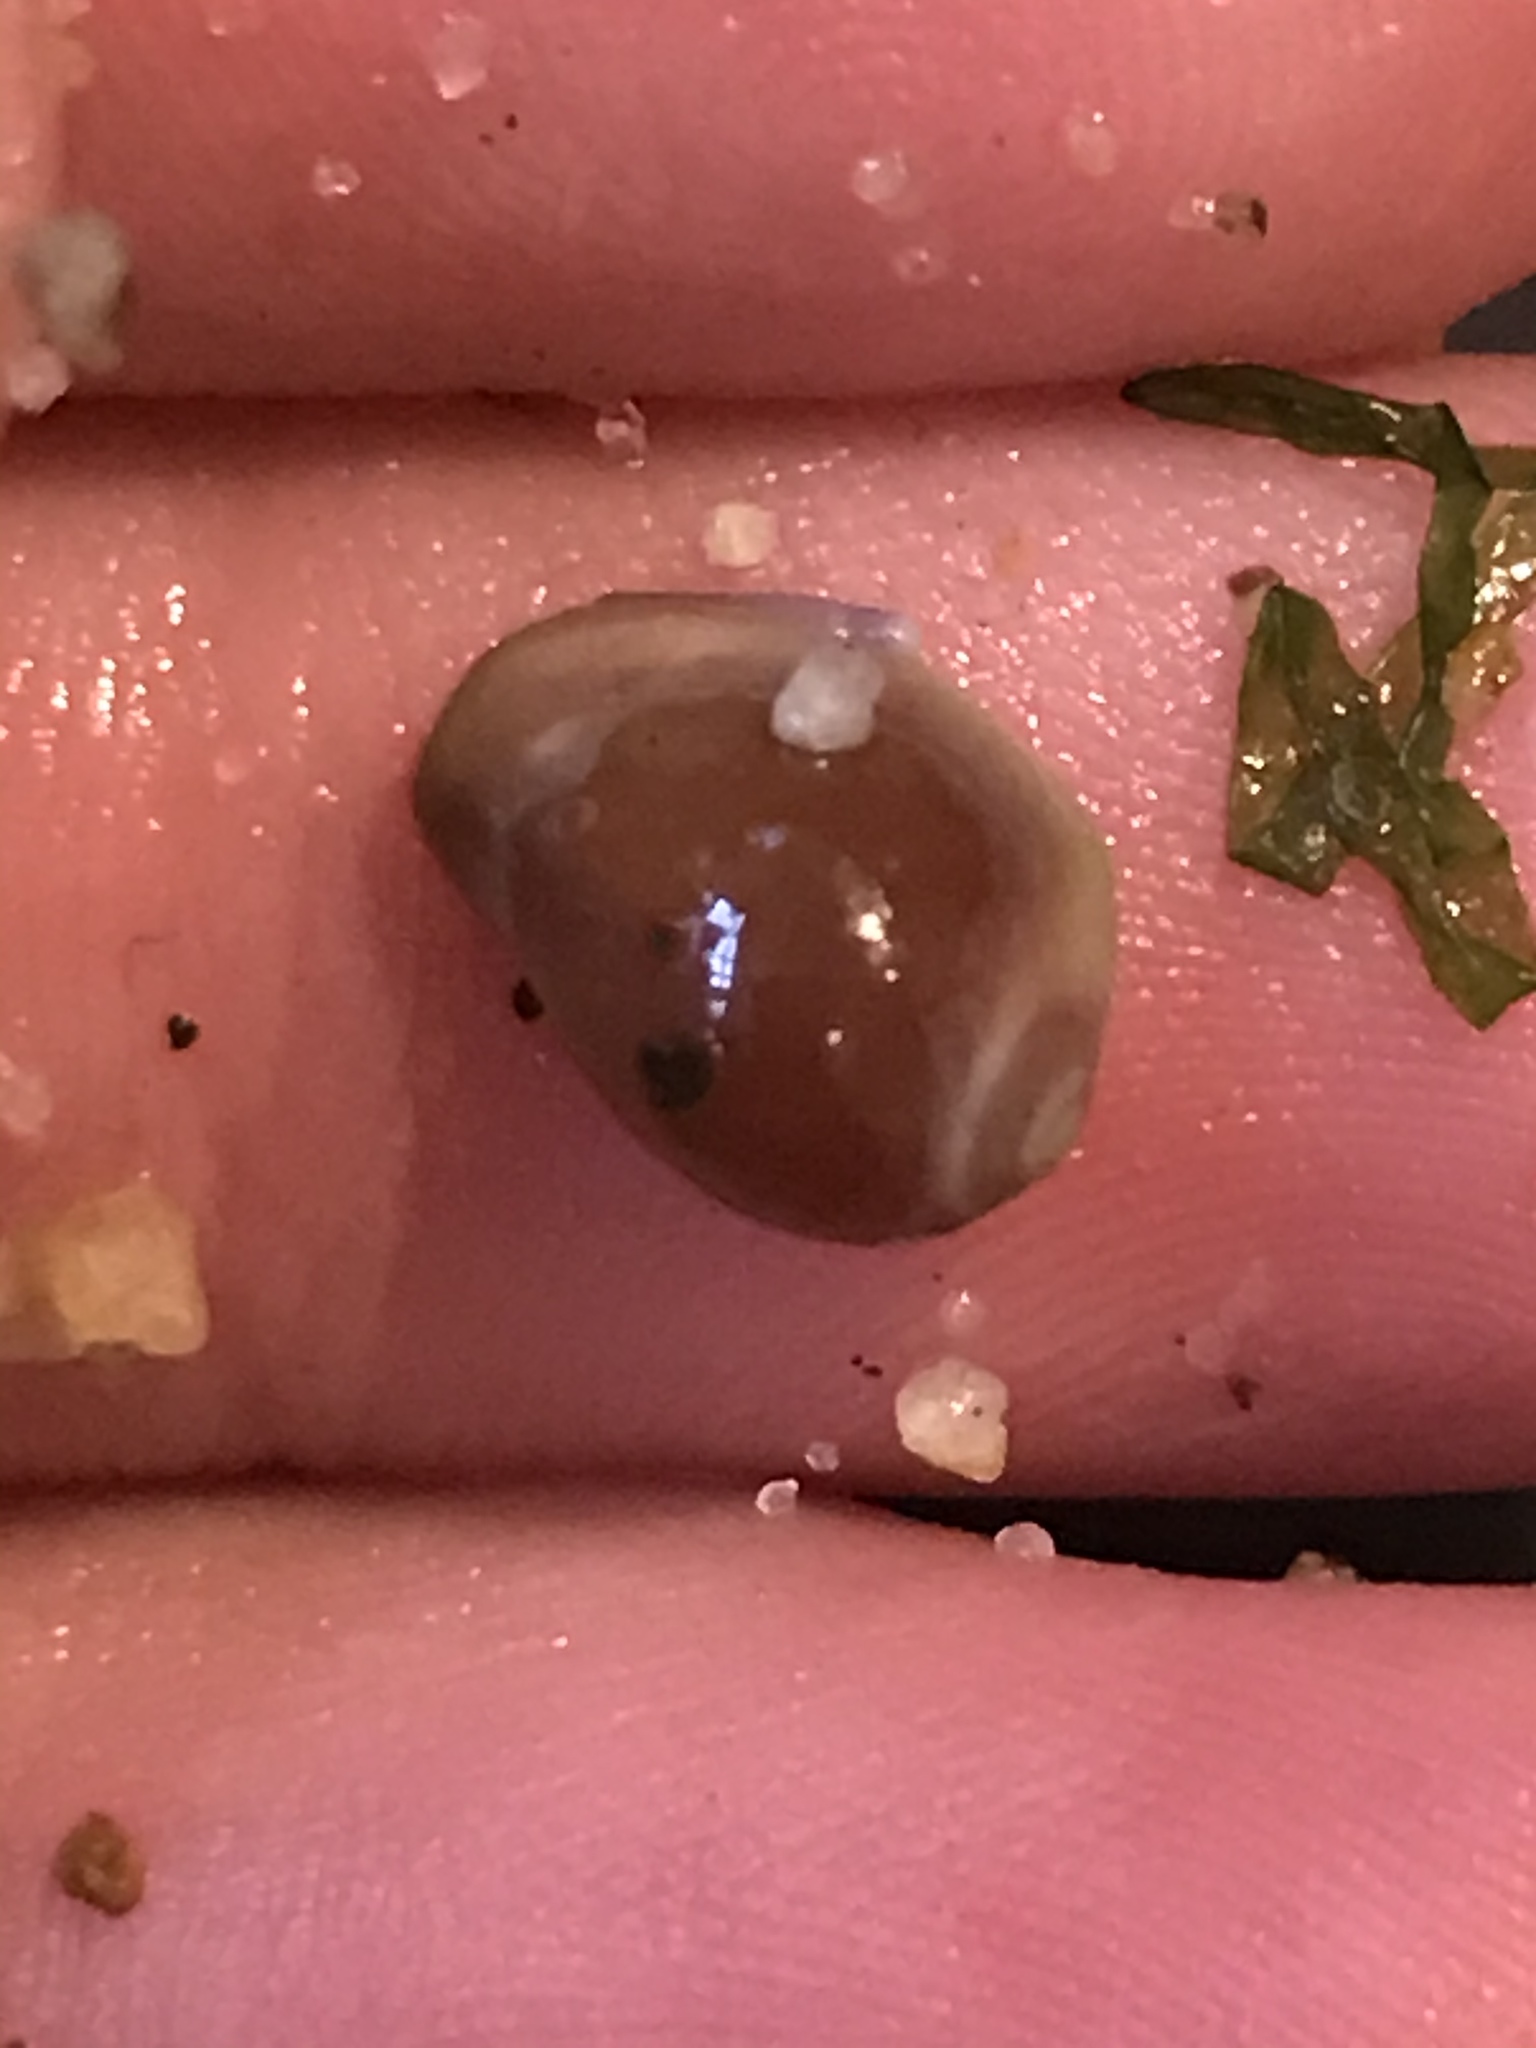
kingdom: Animalia
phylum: Mollusca
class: Gastropoda
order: Littorinimorpha
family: Eratoidae
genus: Hespererato
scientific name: Hespererato vitellina
